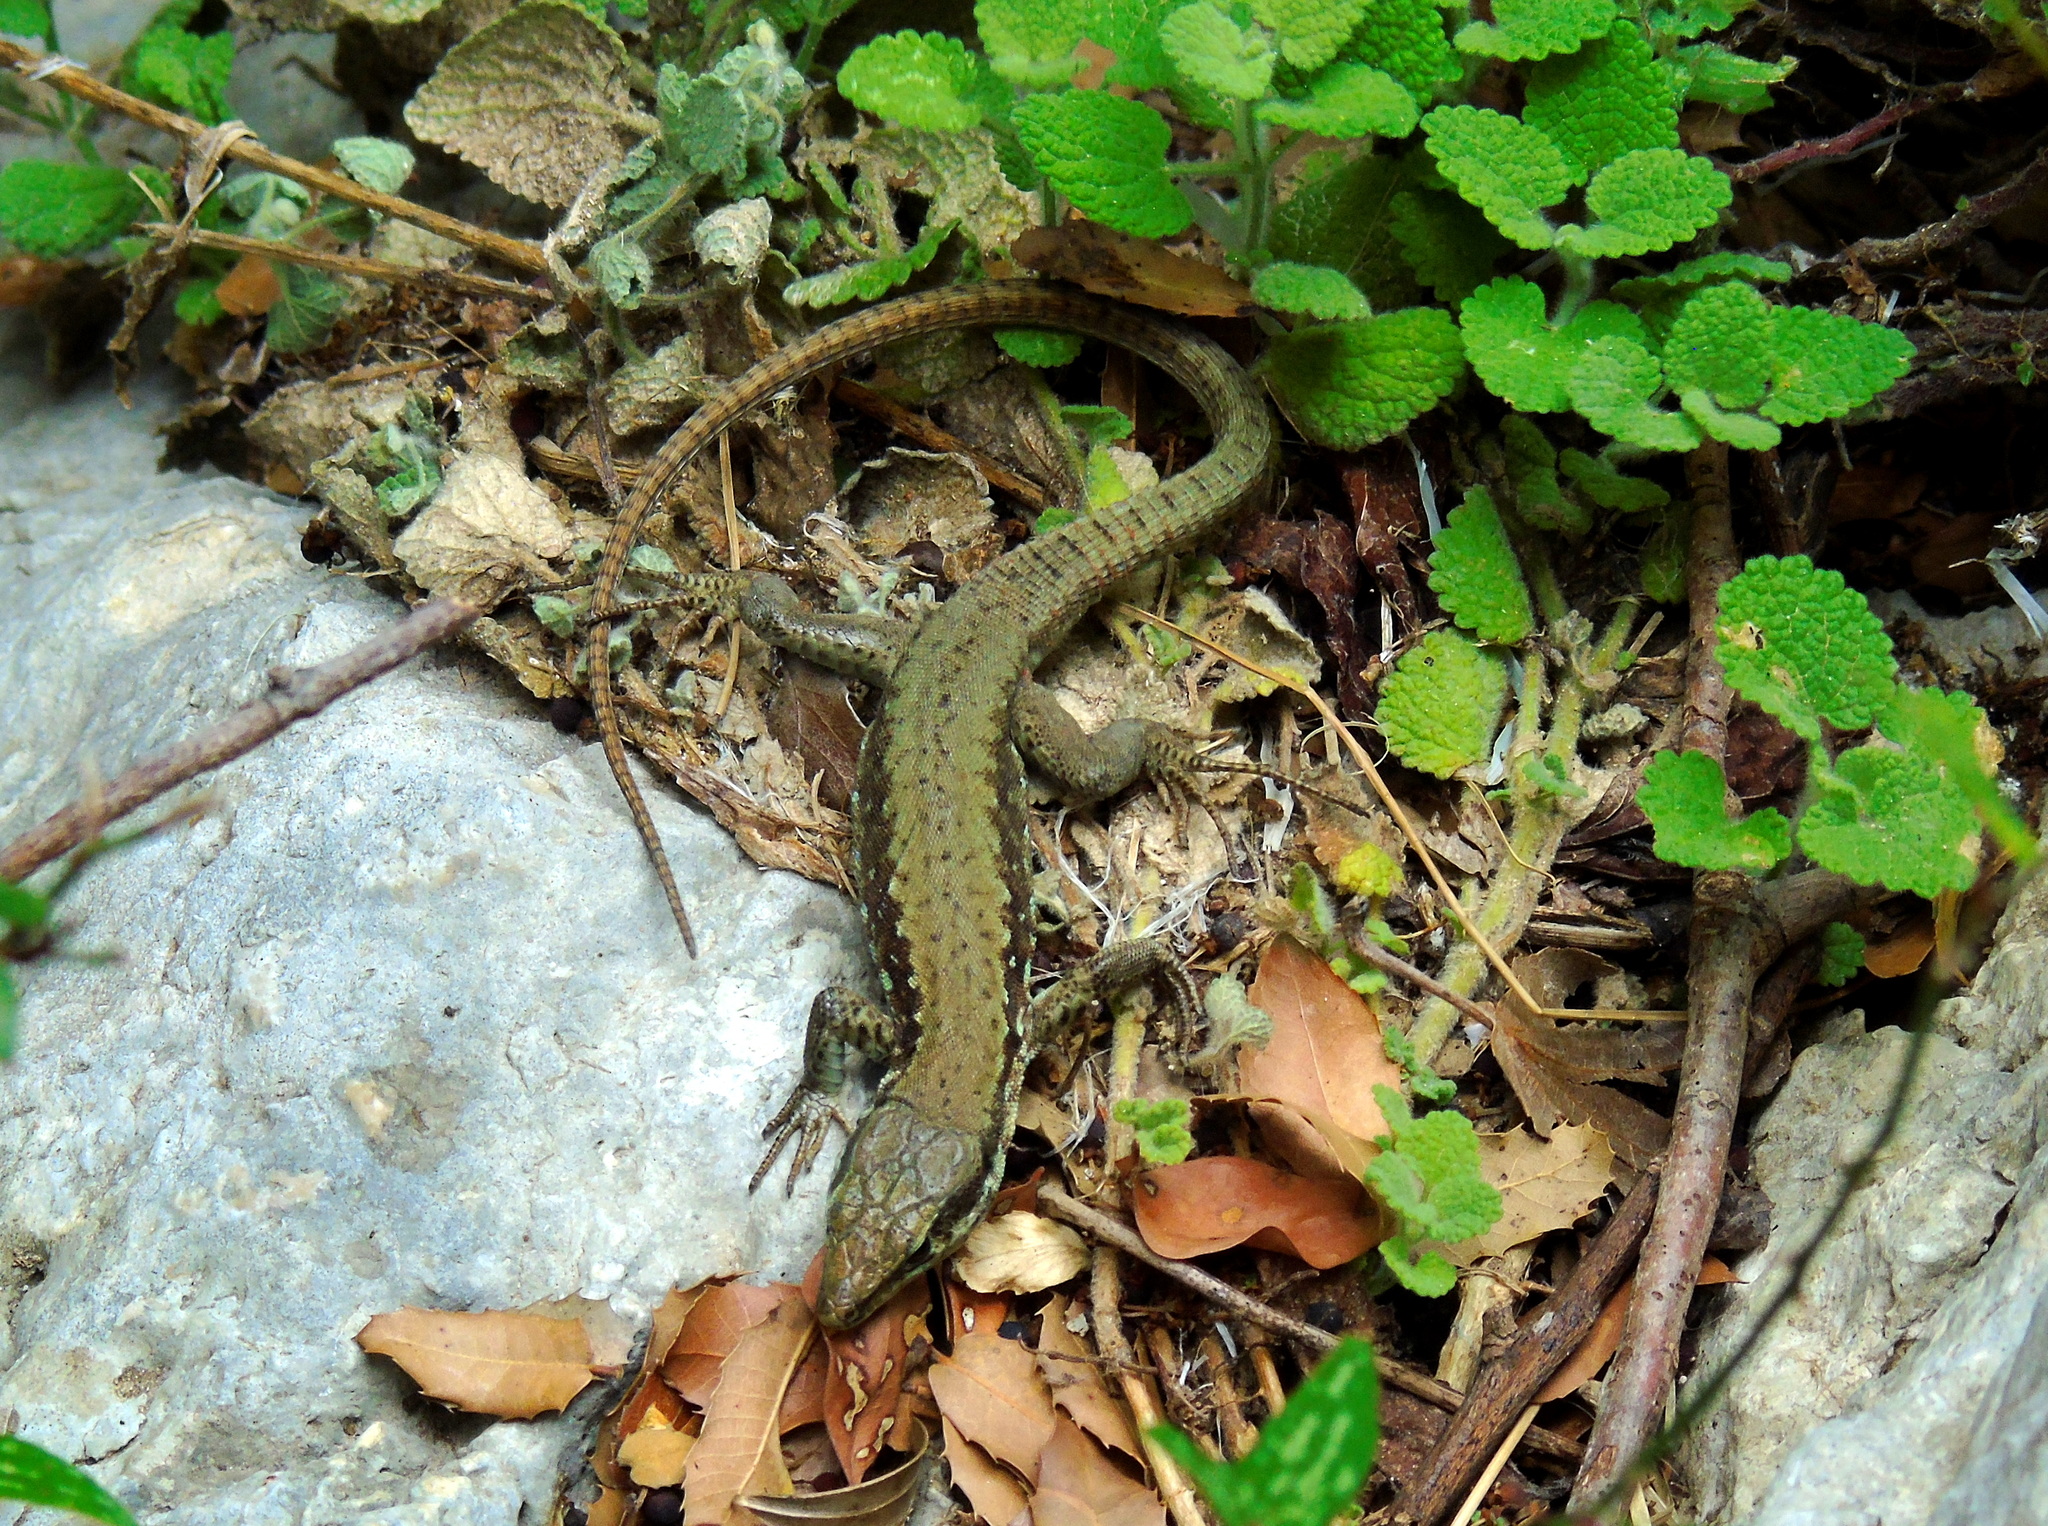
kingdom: Animalia
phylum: Chordata
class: Squamata
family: Lacertidae
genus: Phoenicolacerta
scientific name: Phoenicolacerta laevis
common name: Lebanon lizard
